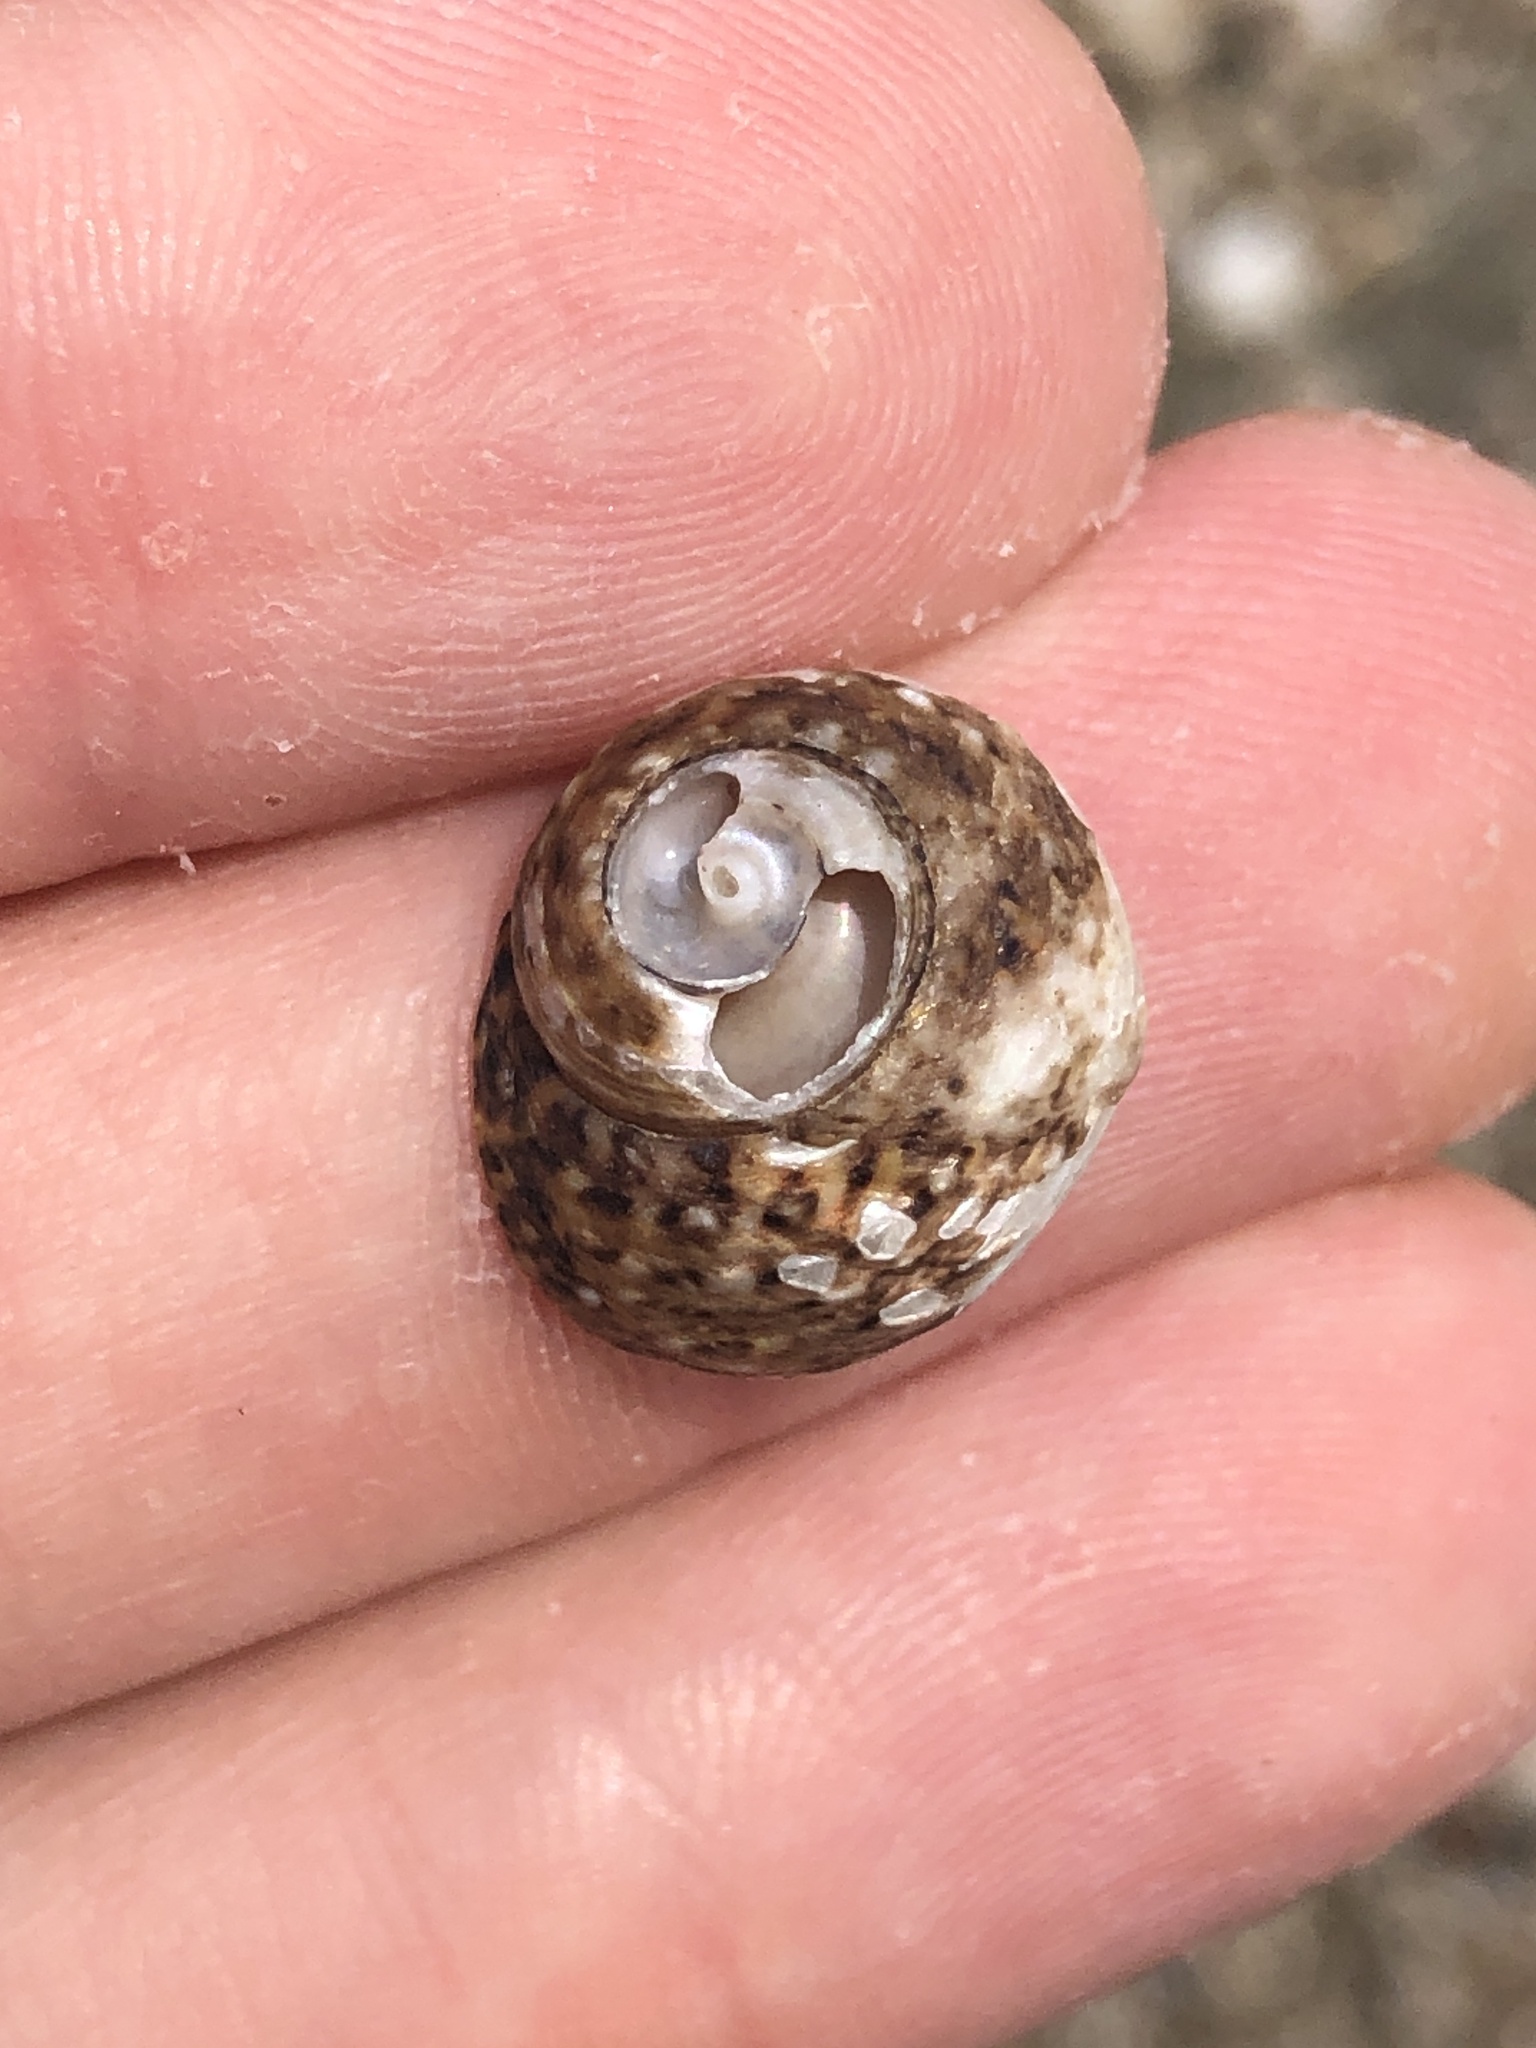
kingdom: Animalia
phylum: Mollusca
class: Gastropoda
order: Trochida
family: Tegulidae
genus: Tegula
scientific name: Tegula eiseni
